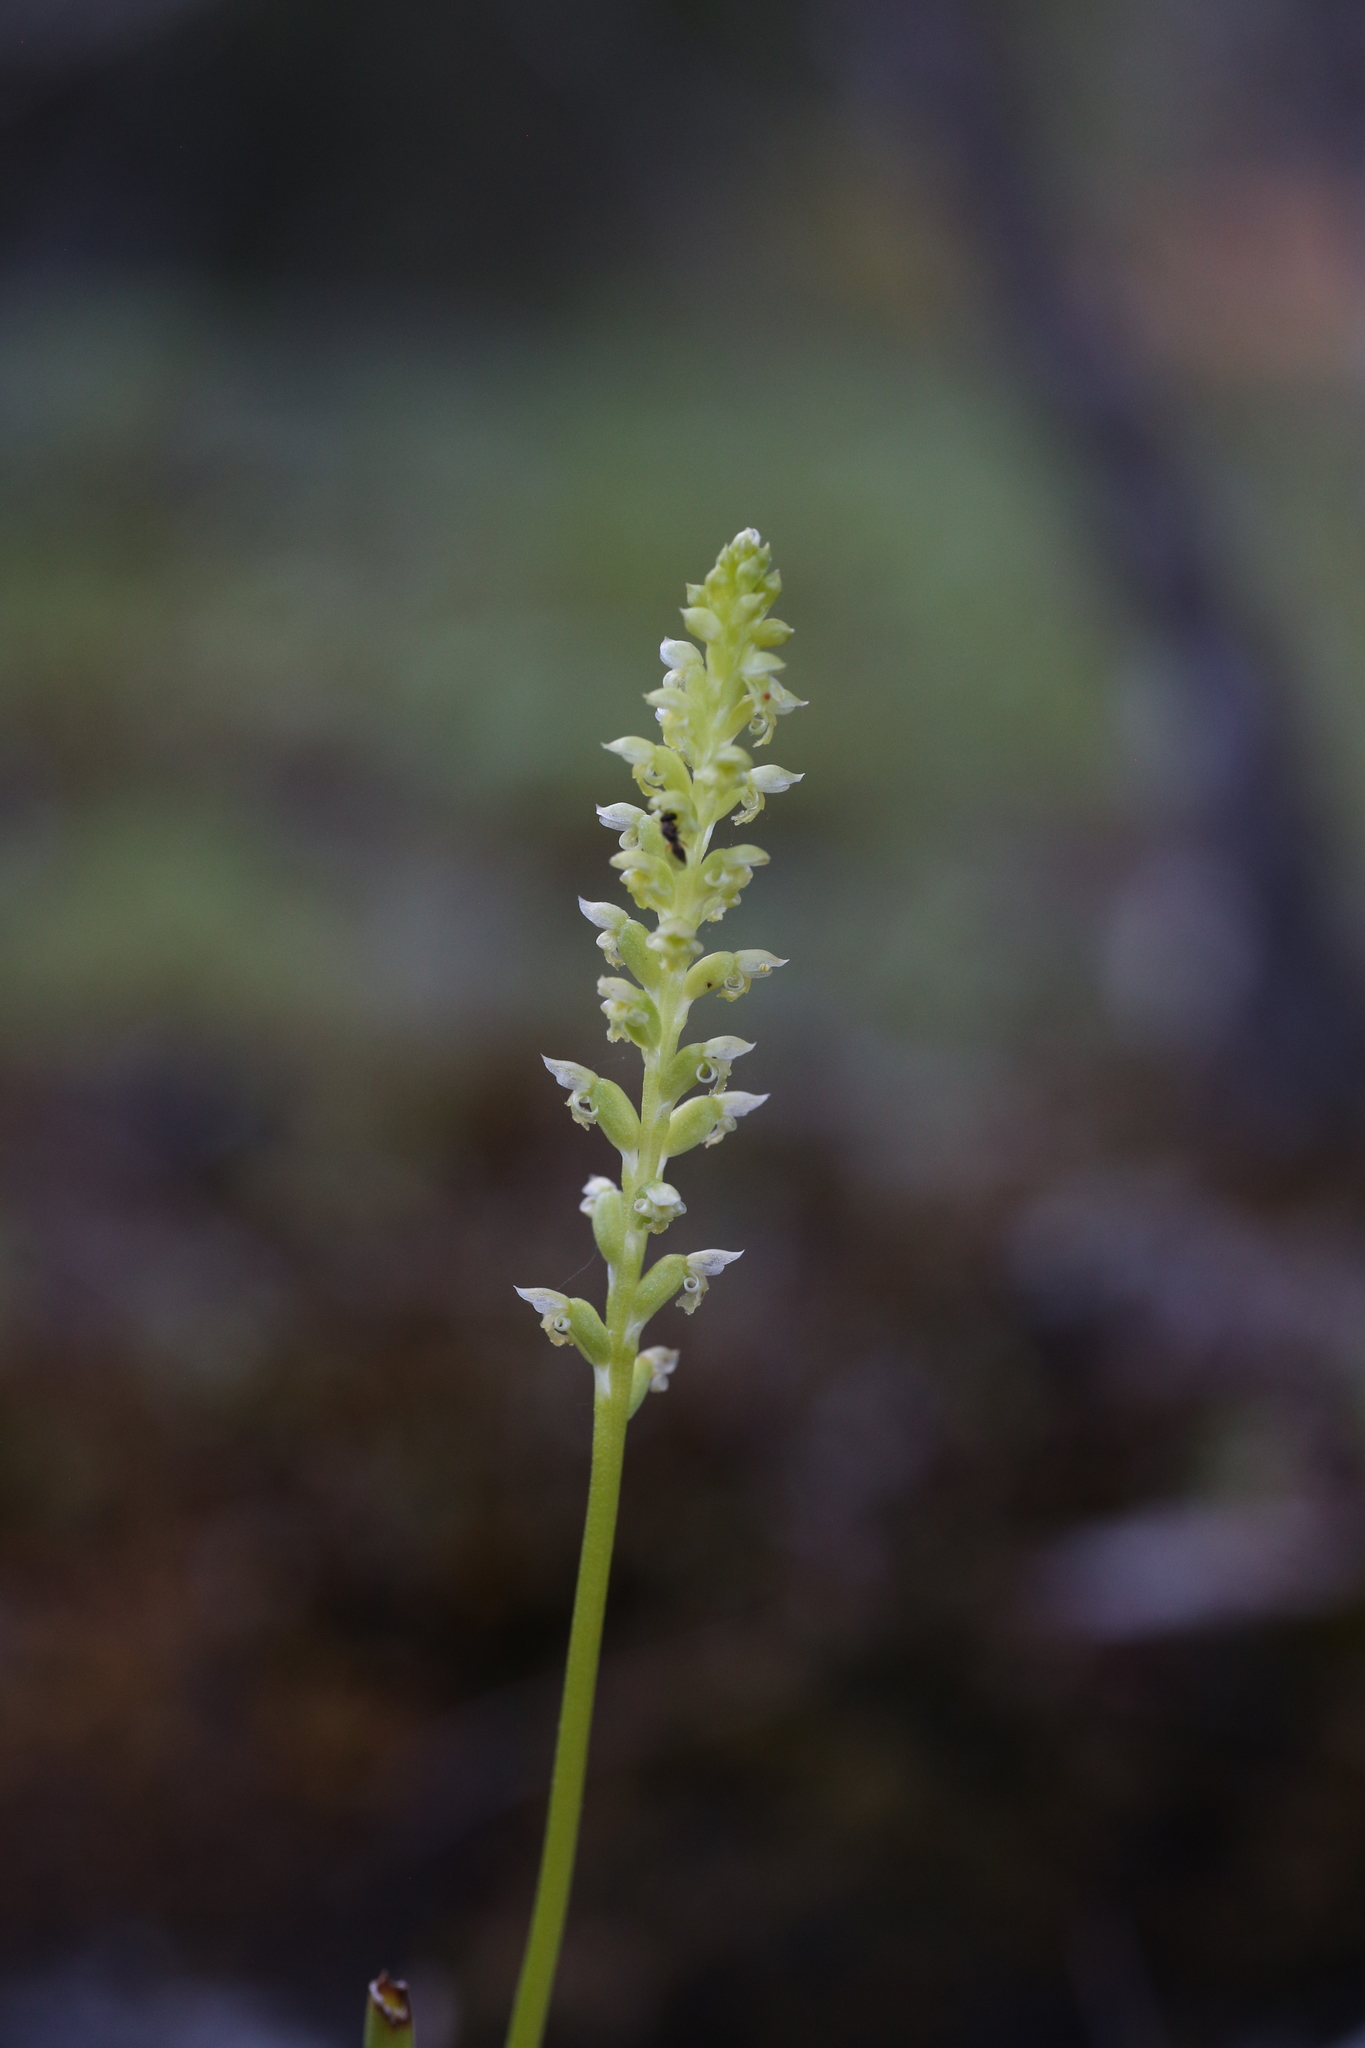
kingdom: Plantae
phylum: Tracheophyta
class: Liliopsida
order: Asparagales
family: Orchidaceae
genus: Microtis
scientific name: Microtis media
